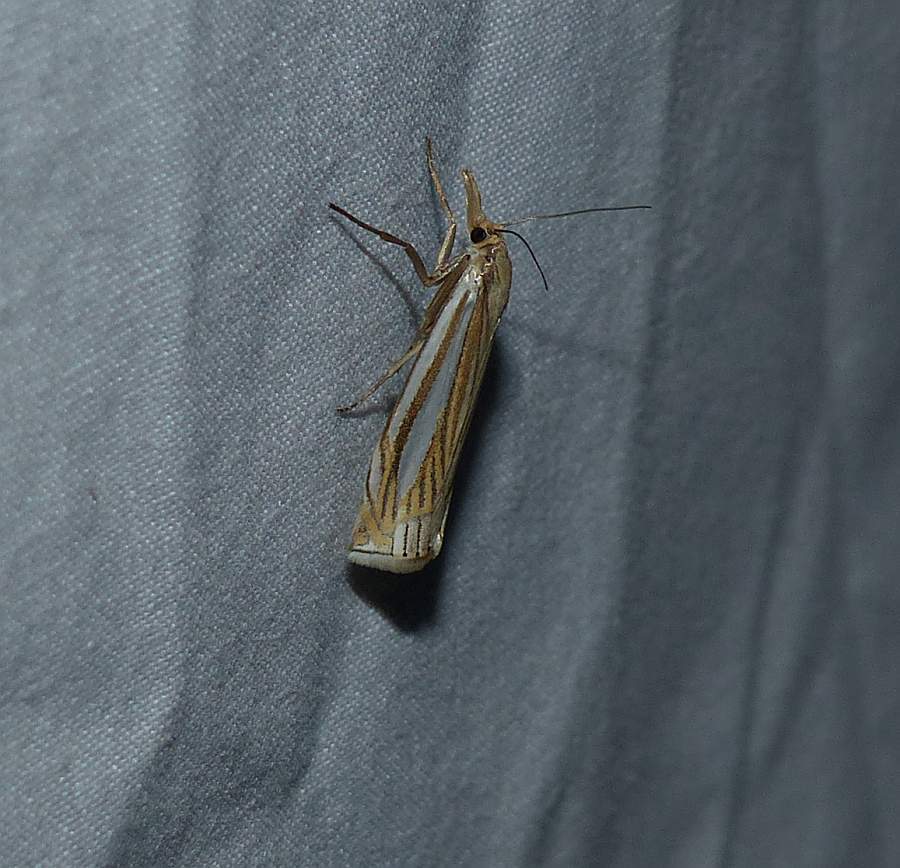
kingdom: Animalia
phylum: Arthropoda
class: Insecta
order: Lepidoptera
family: Crambidae
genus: Crambus
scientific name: Crambus laqueatellus
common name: Eastern grass-veneer
